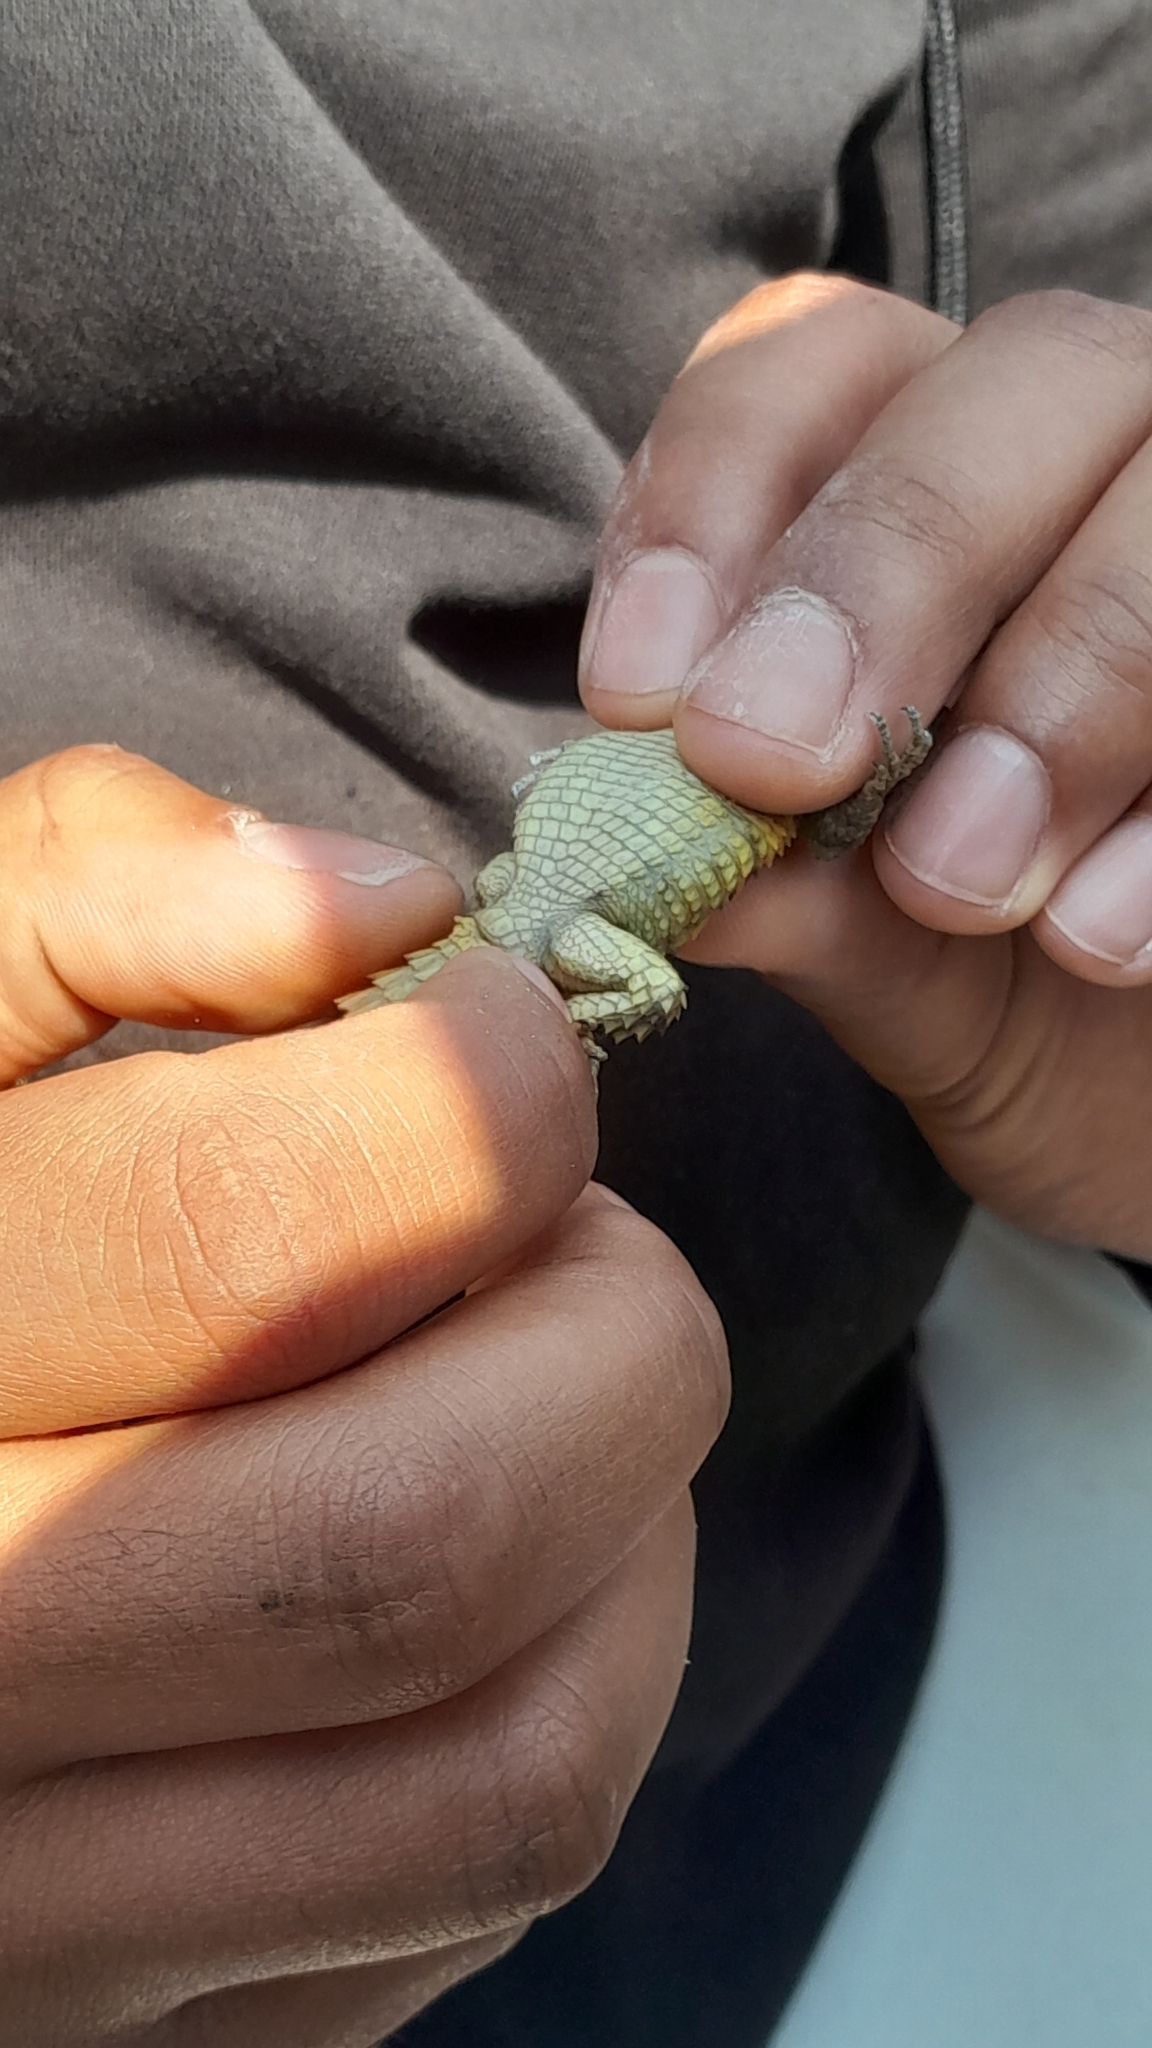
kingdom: Animalia
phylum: Chordata
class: Squamata
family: Cordylidae
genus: Cordylus
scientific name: Cordylus cordylus
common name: Cape girdled lizard
